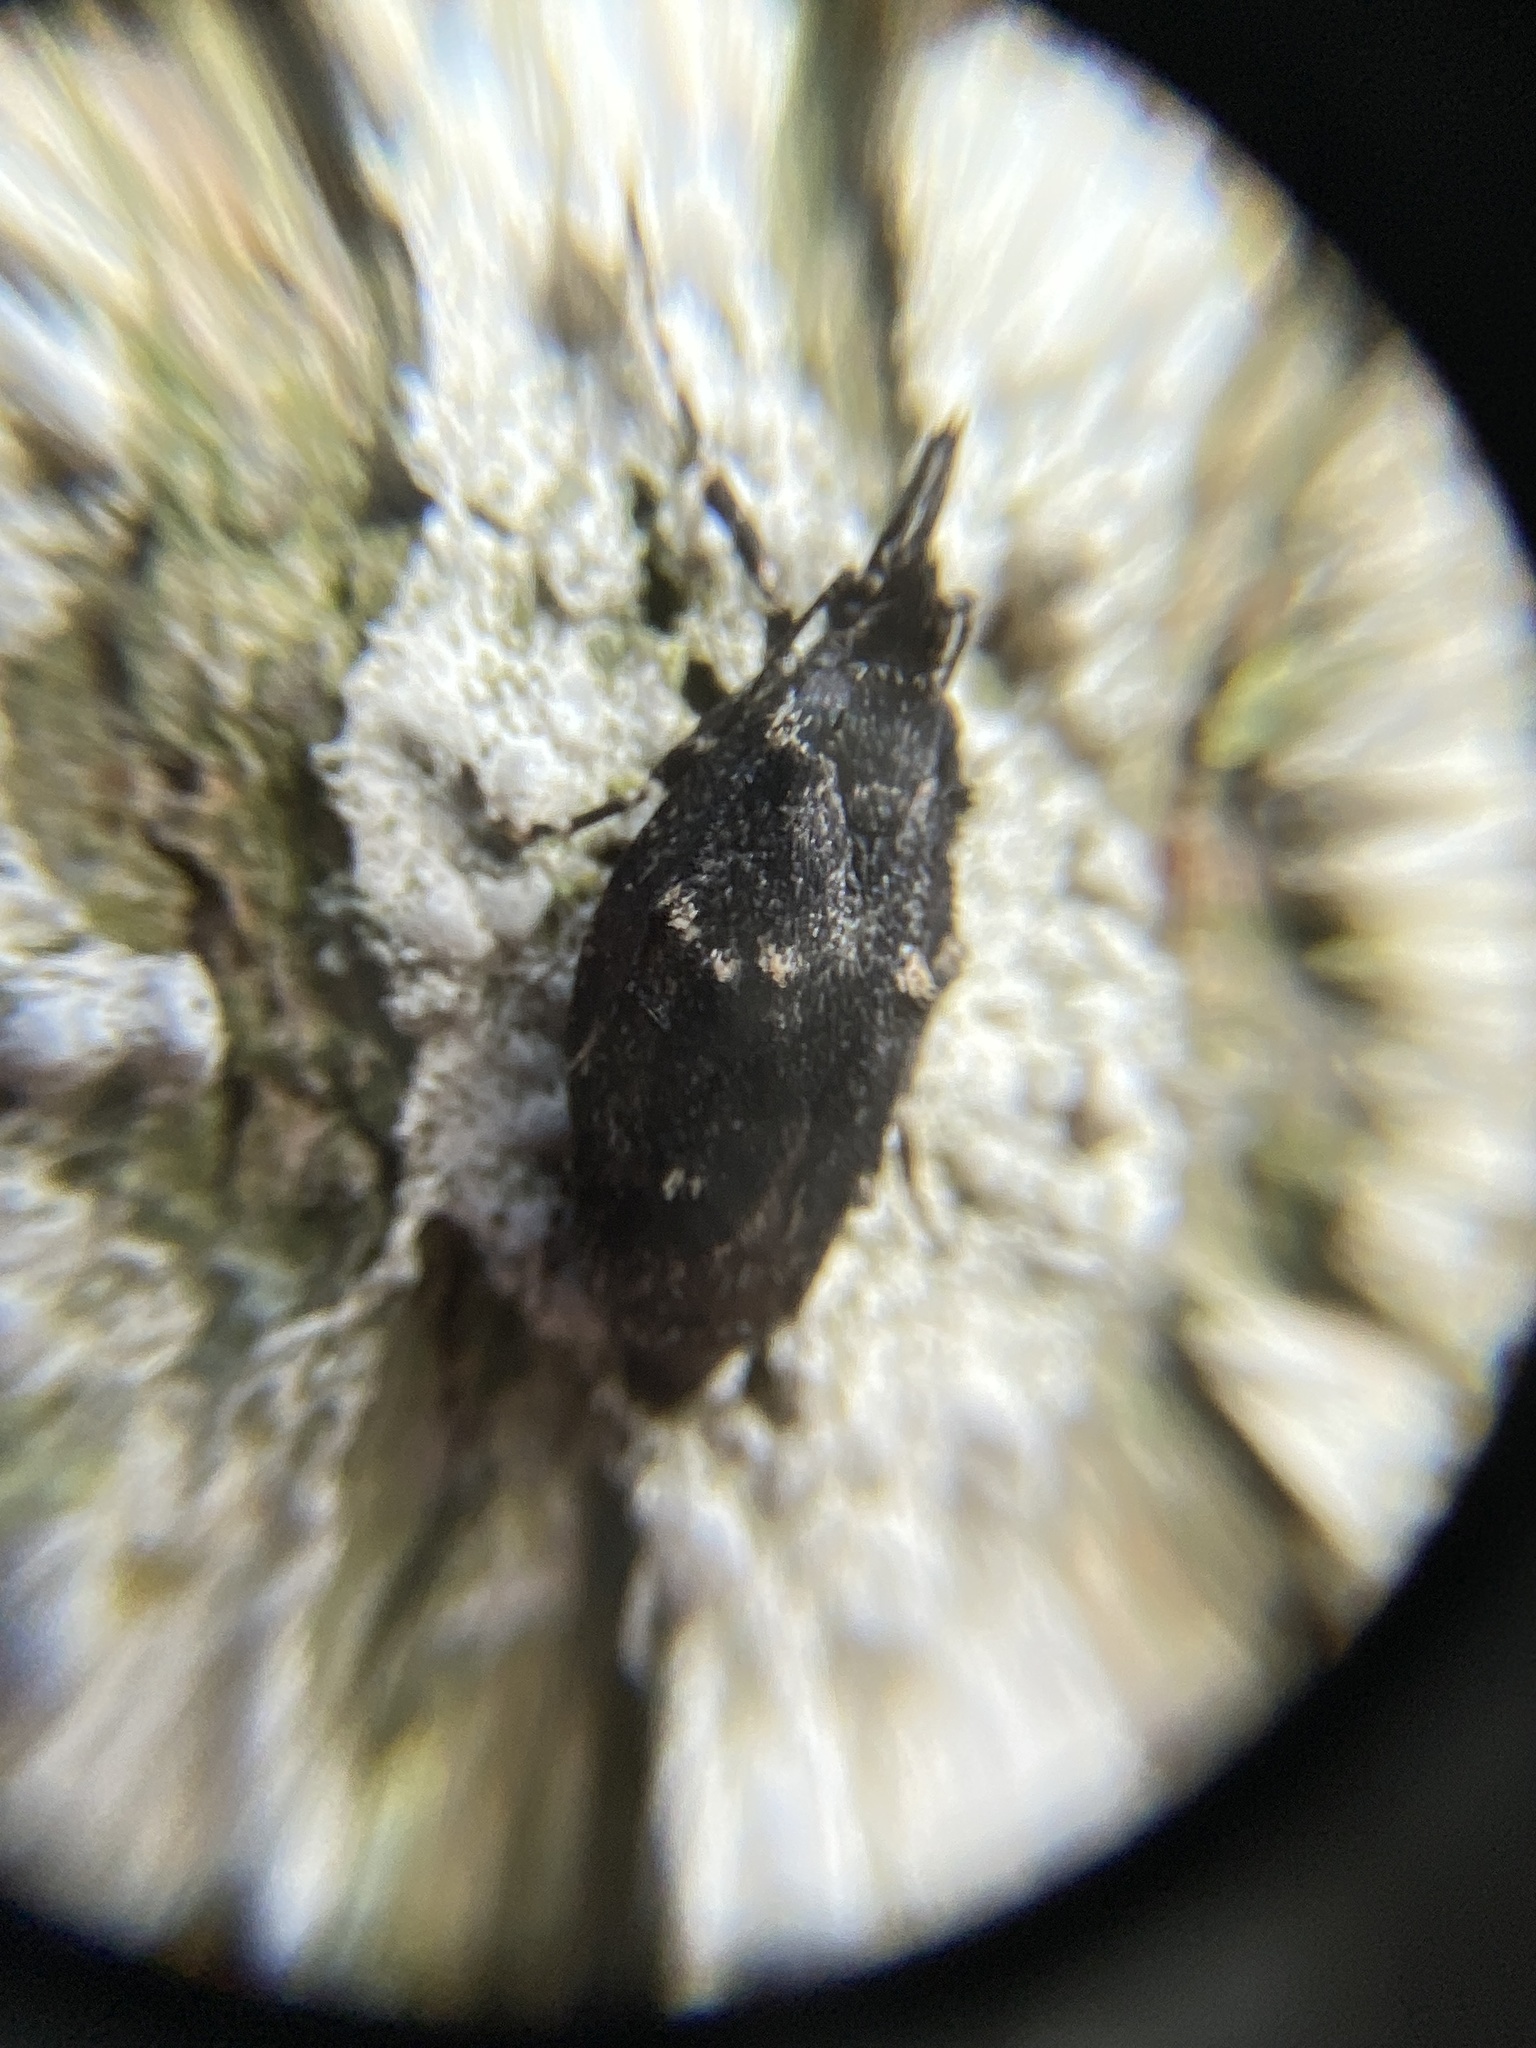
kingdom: Animalia
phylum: Arthropoda
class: Insecta
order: Lepidoptera
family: Lypusidae
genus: Diurnea
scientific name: Diurnea fagella
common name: March tubic
